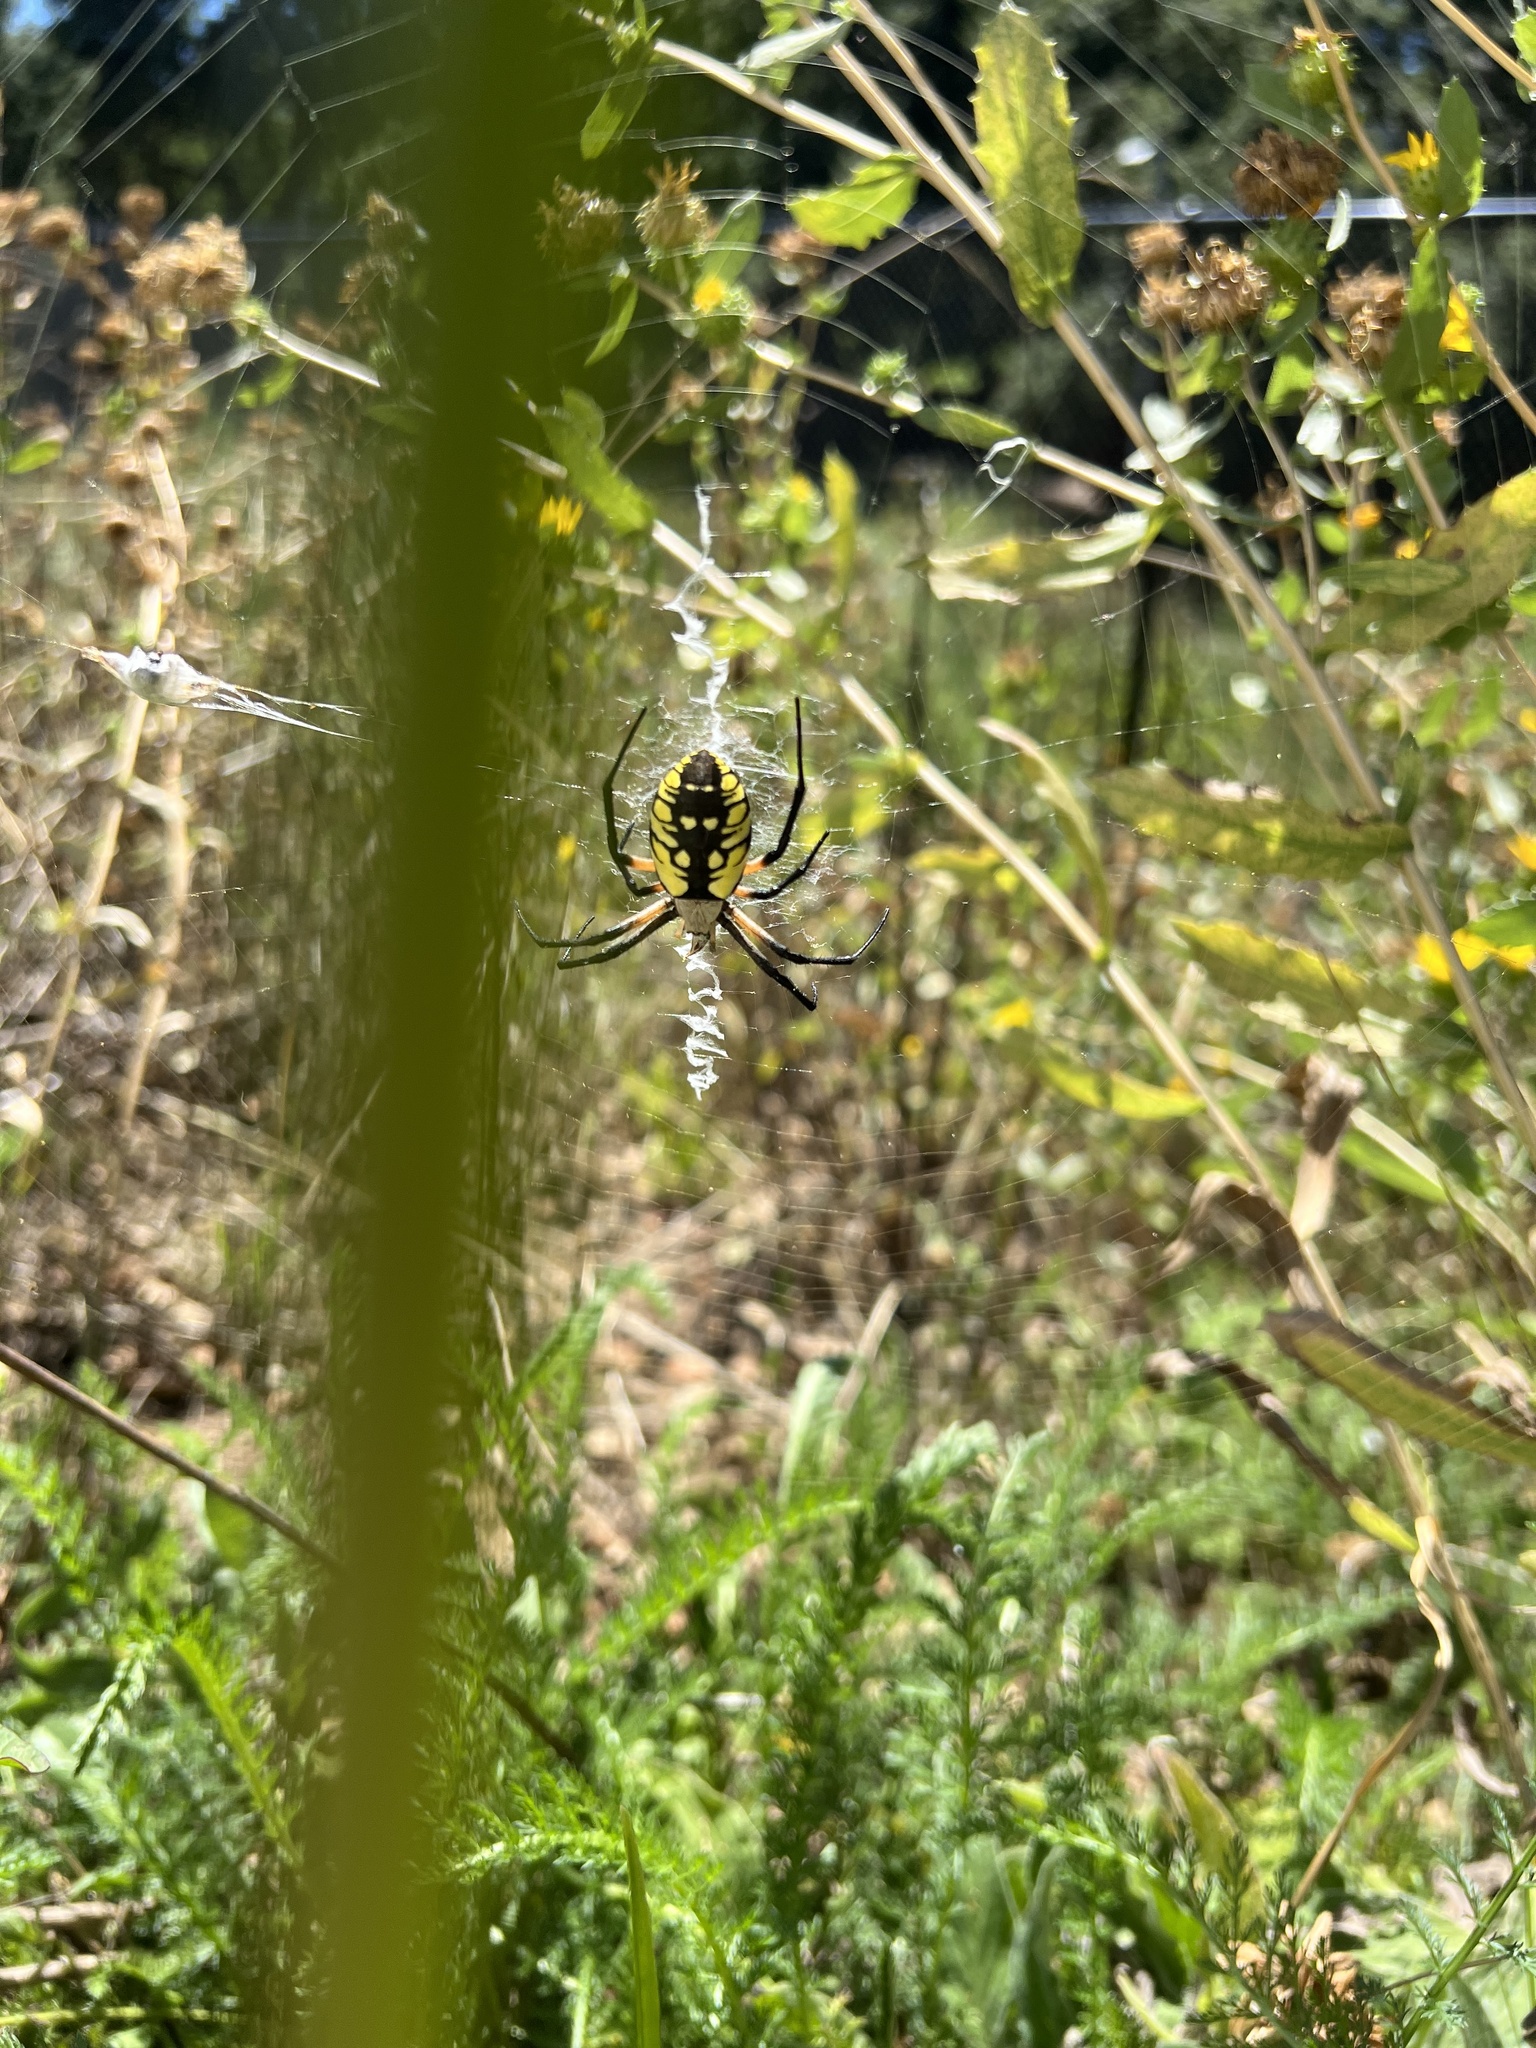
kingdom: Animalia
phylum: Arthropoda
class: Arachnida
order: Araneae
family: Araneidae
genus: Argiope
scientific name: Argiope aurantia
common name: Orb weavers
